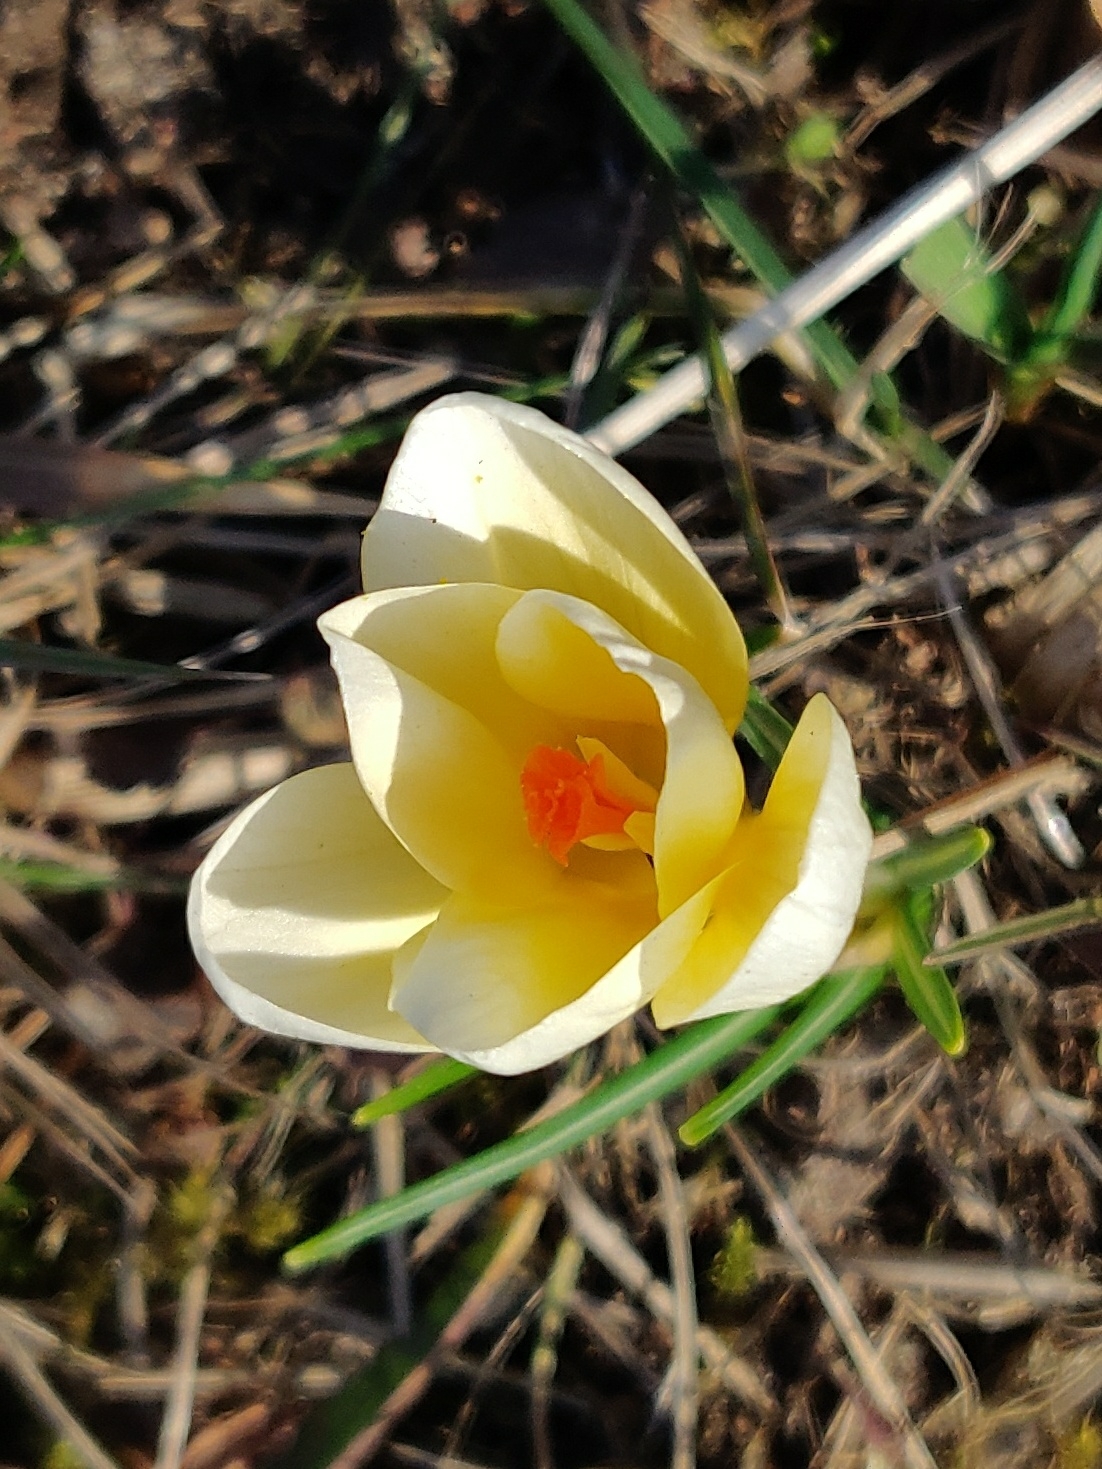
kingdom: Plantae
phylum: Tracheophyta
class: Liliopsida
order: Asparagales
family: Iridaceae
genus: Crocus
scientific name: Crocus chrysanthus
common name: Golden crocus
